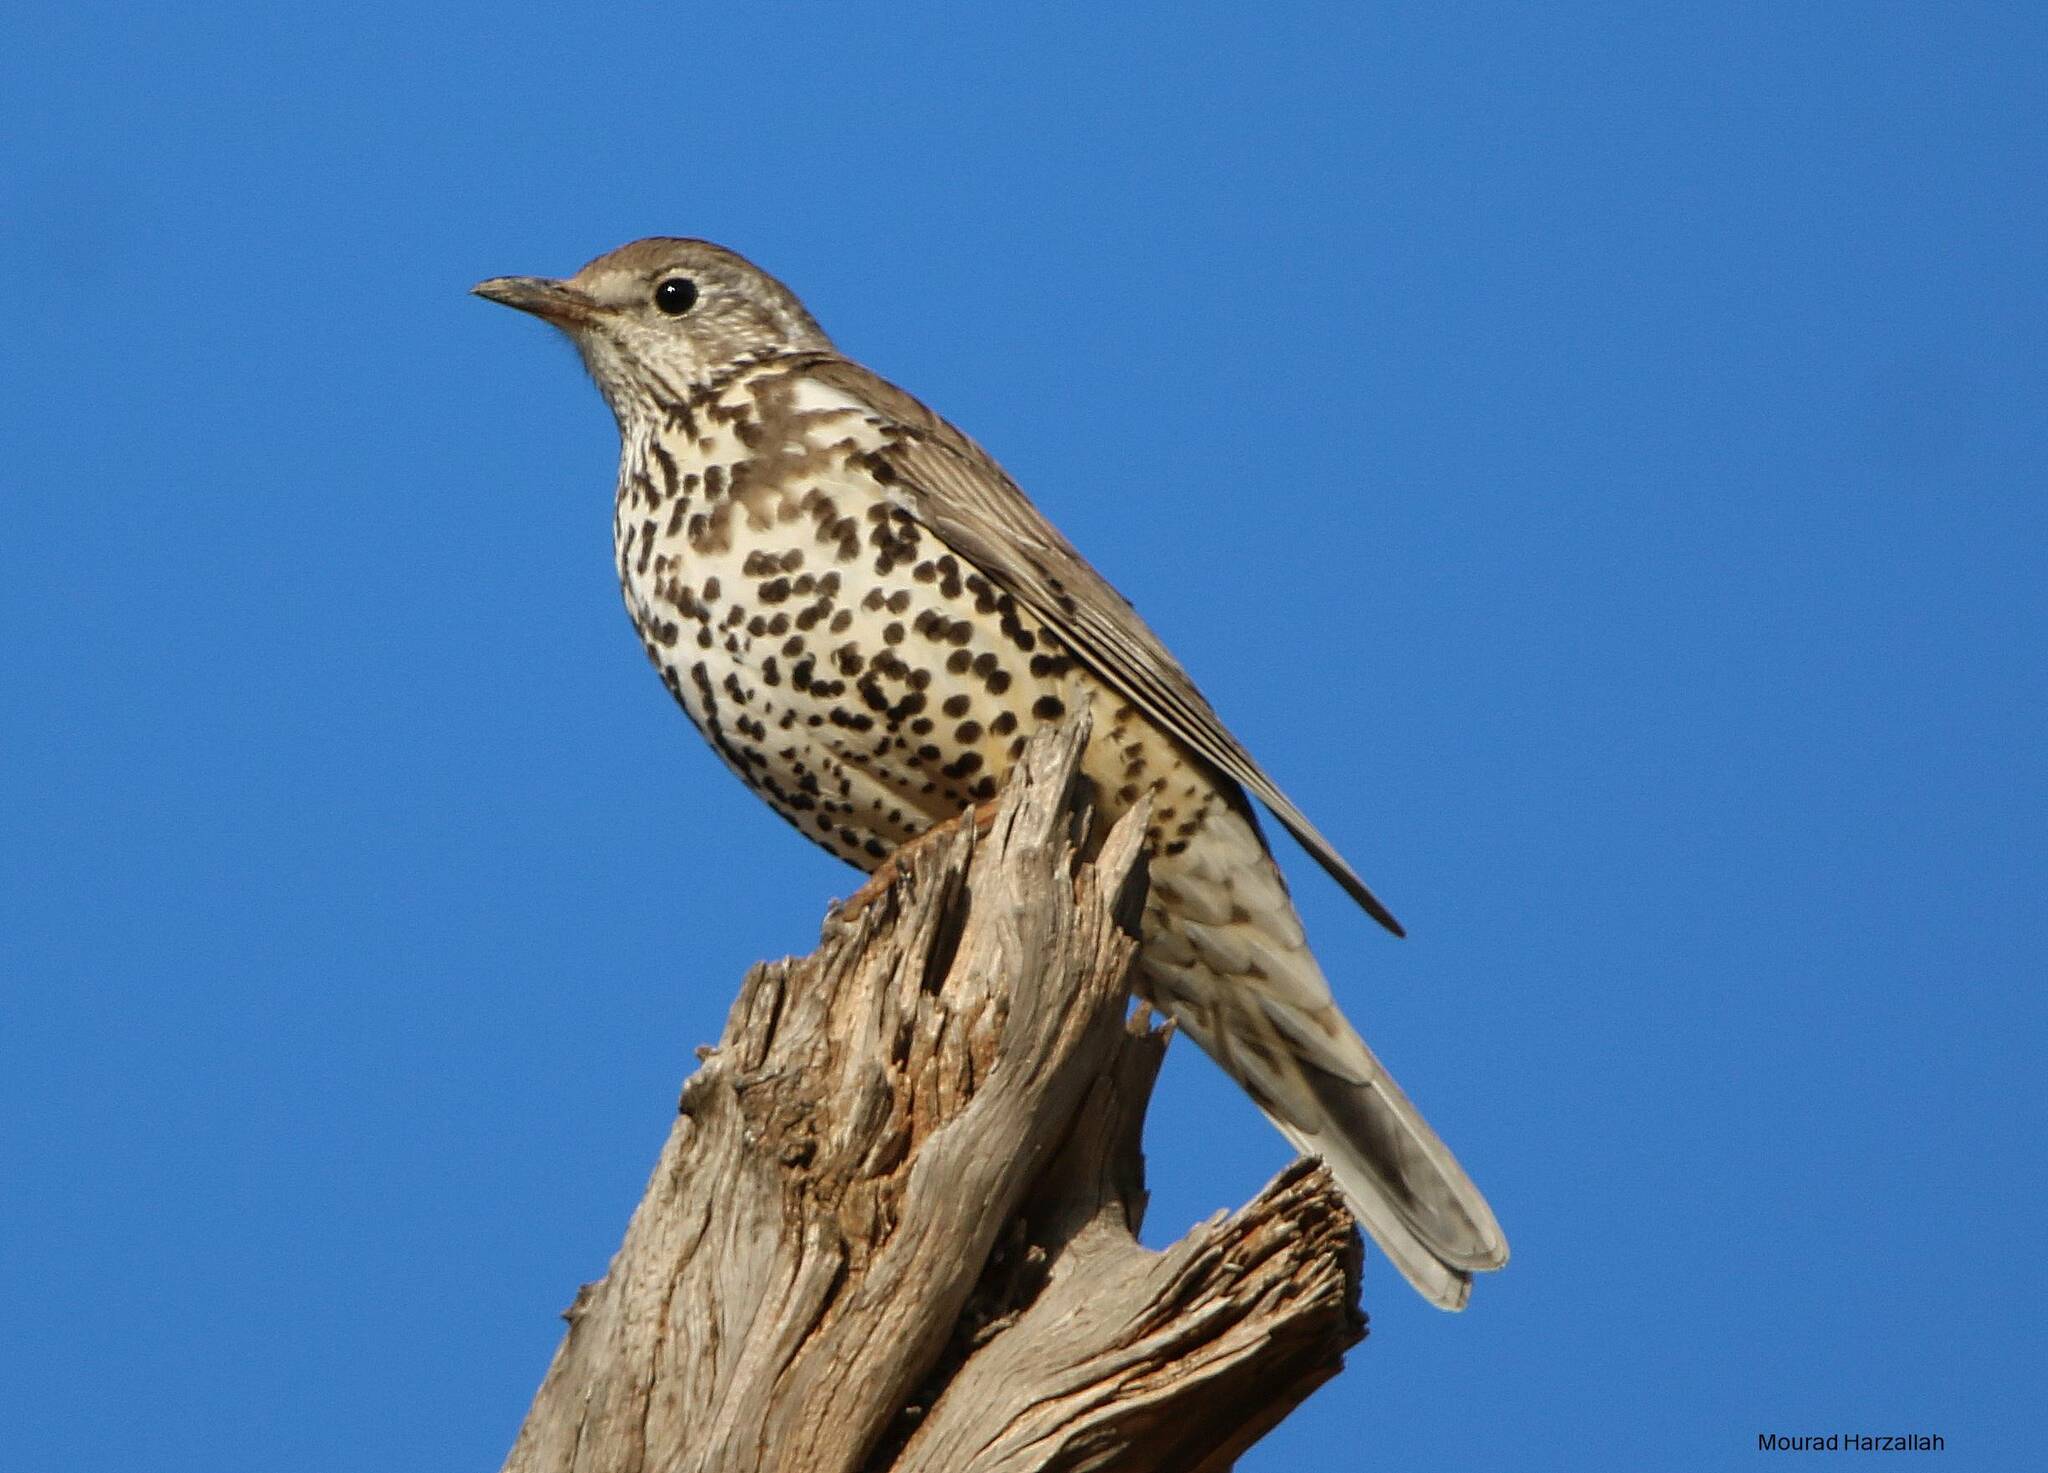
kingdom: Animalia
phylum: Chordata
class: Aves
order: Passeriformes
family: Turdidae
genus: Turdus
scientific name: Turdus viscivorus
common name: Mistle thrush
